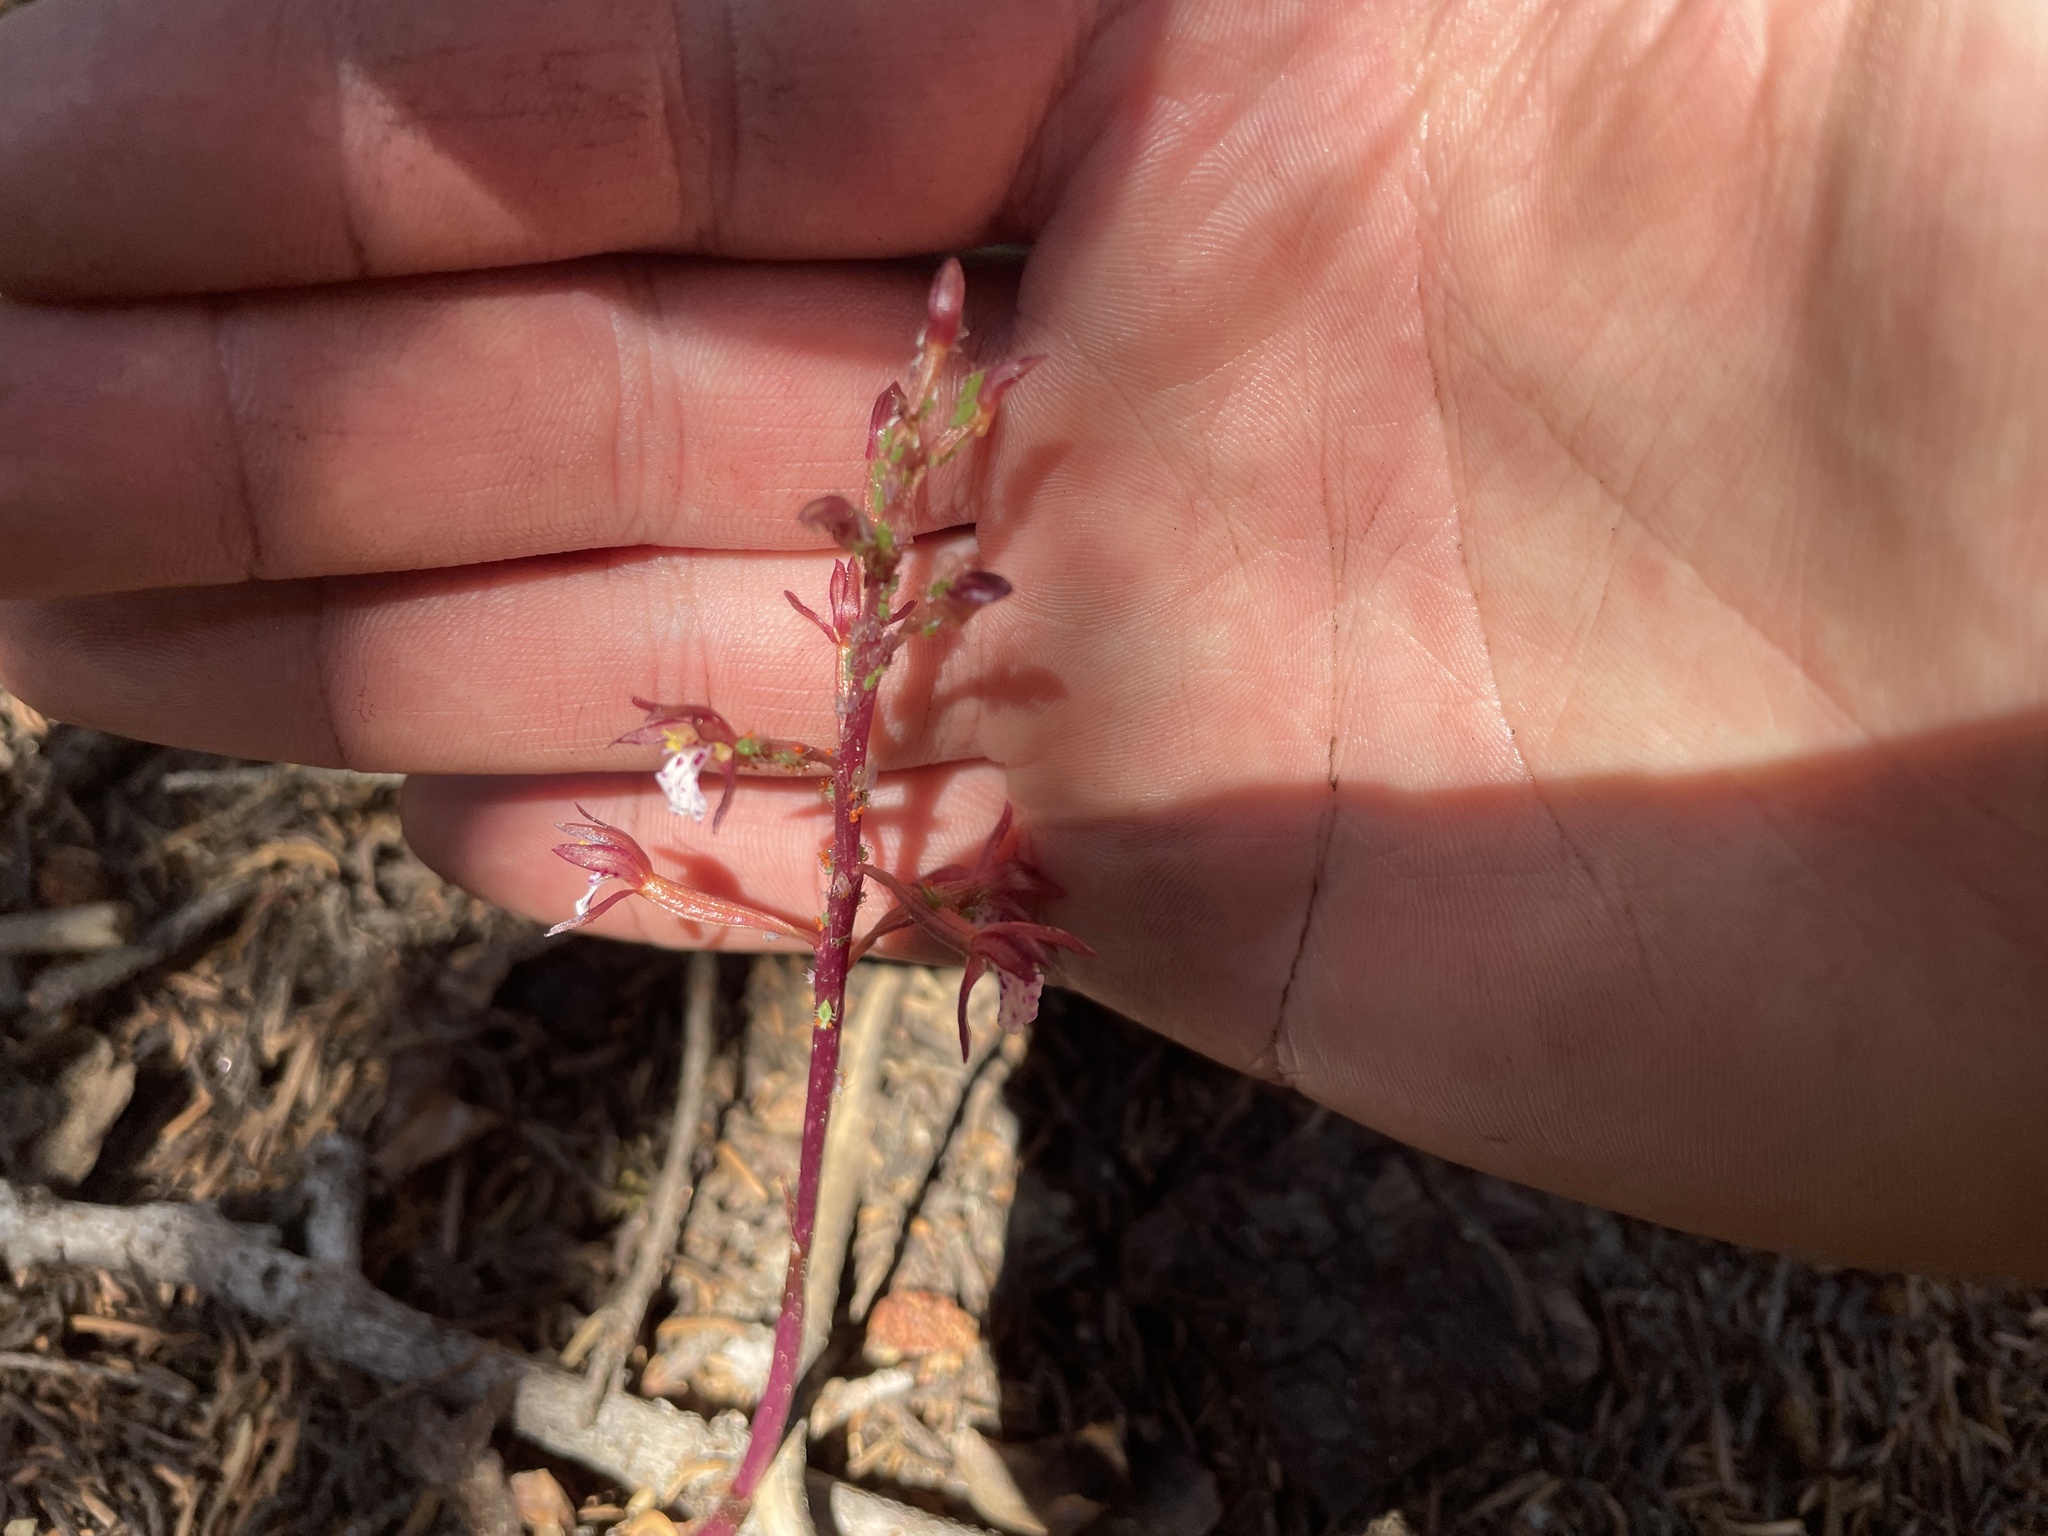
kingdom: Plantae
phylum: Tracheophyta
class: Liliopsida
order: Asparagales
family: Orchidaceae
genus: Corallorhiza
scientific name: Corallorhiza maculata
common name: Spotted coralroot
